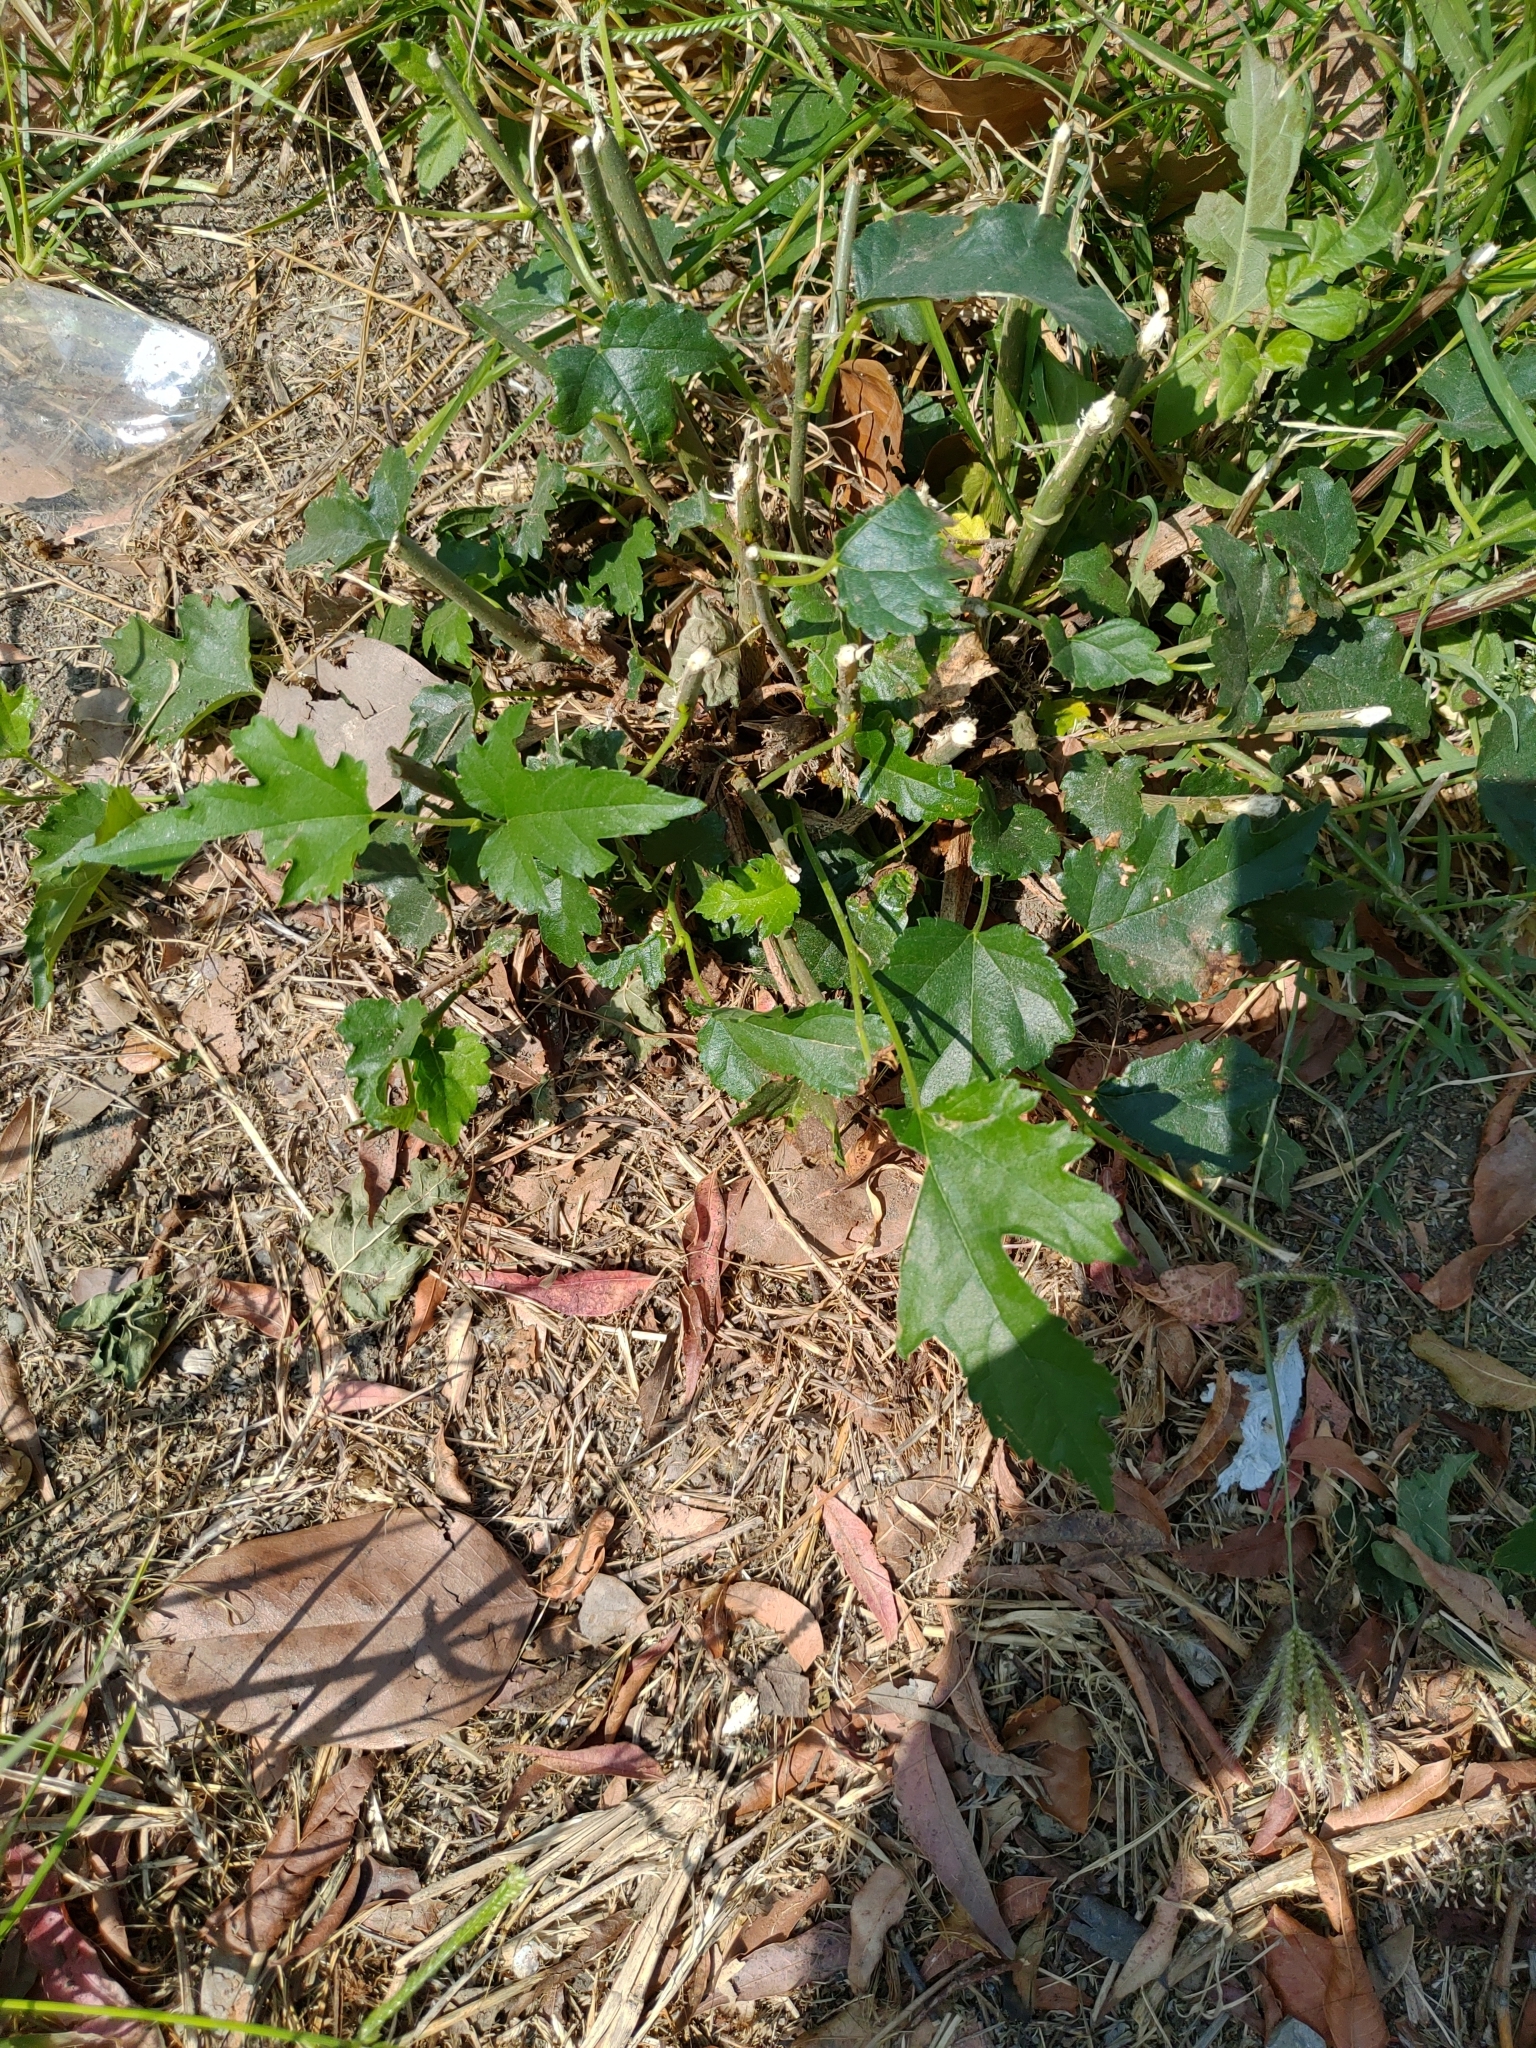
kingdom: Plantae
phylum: Tracheophyta
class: Magnoliopsida
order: Rosales
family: Moraceae
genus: Morus
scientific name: Morus indica
